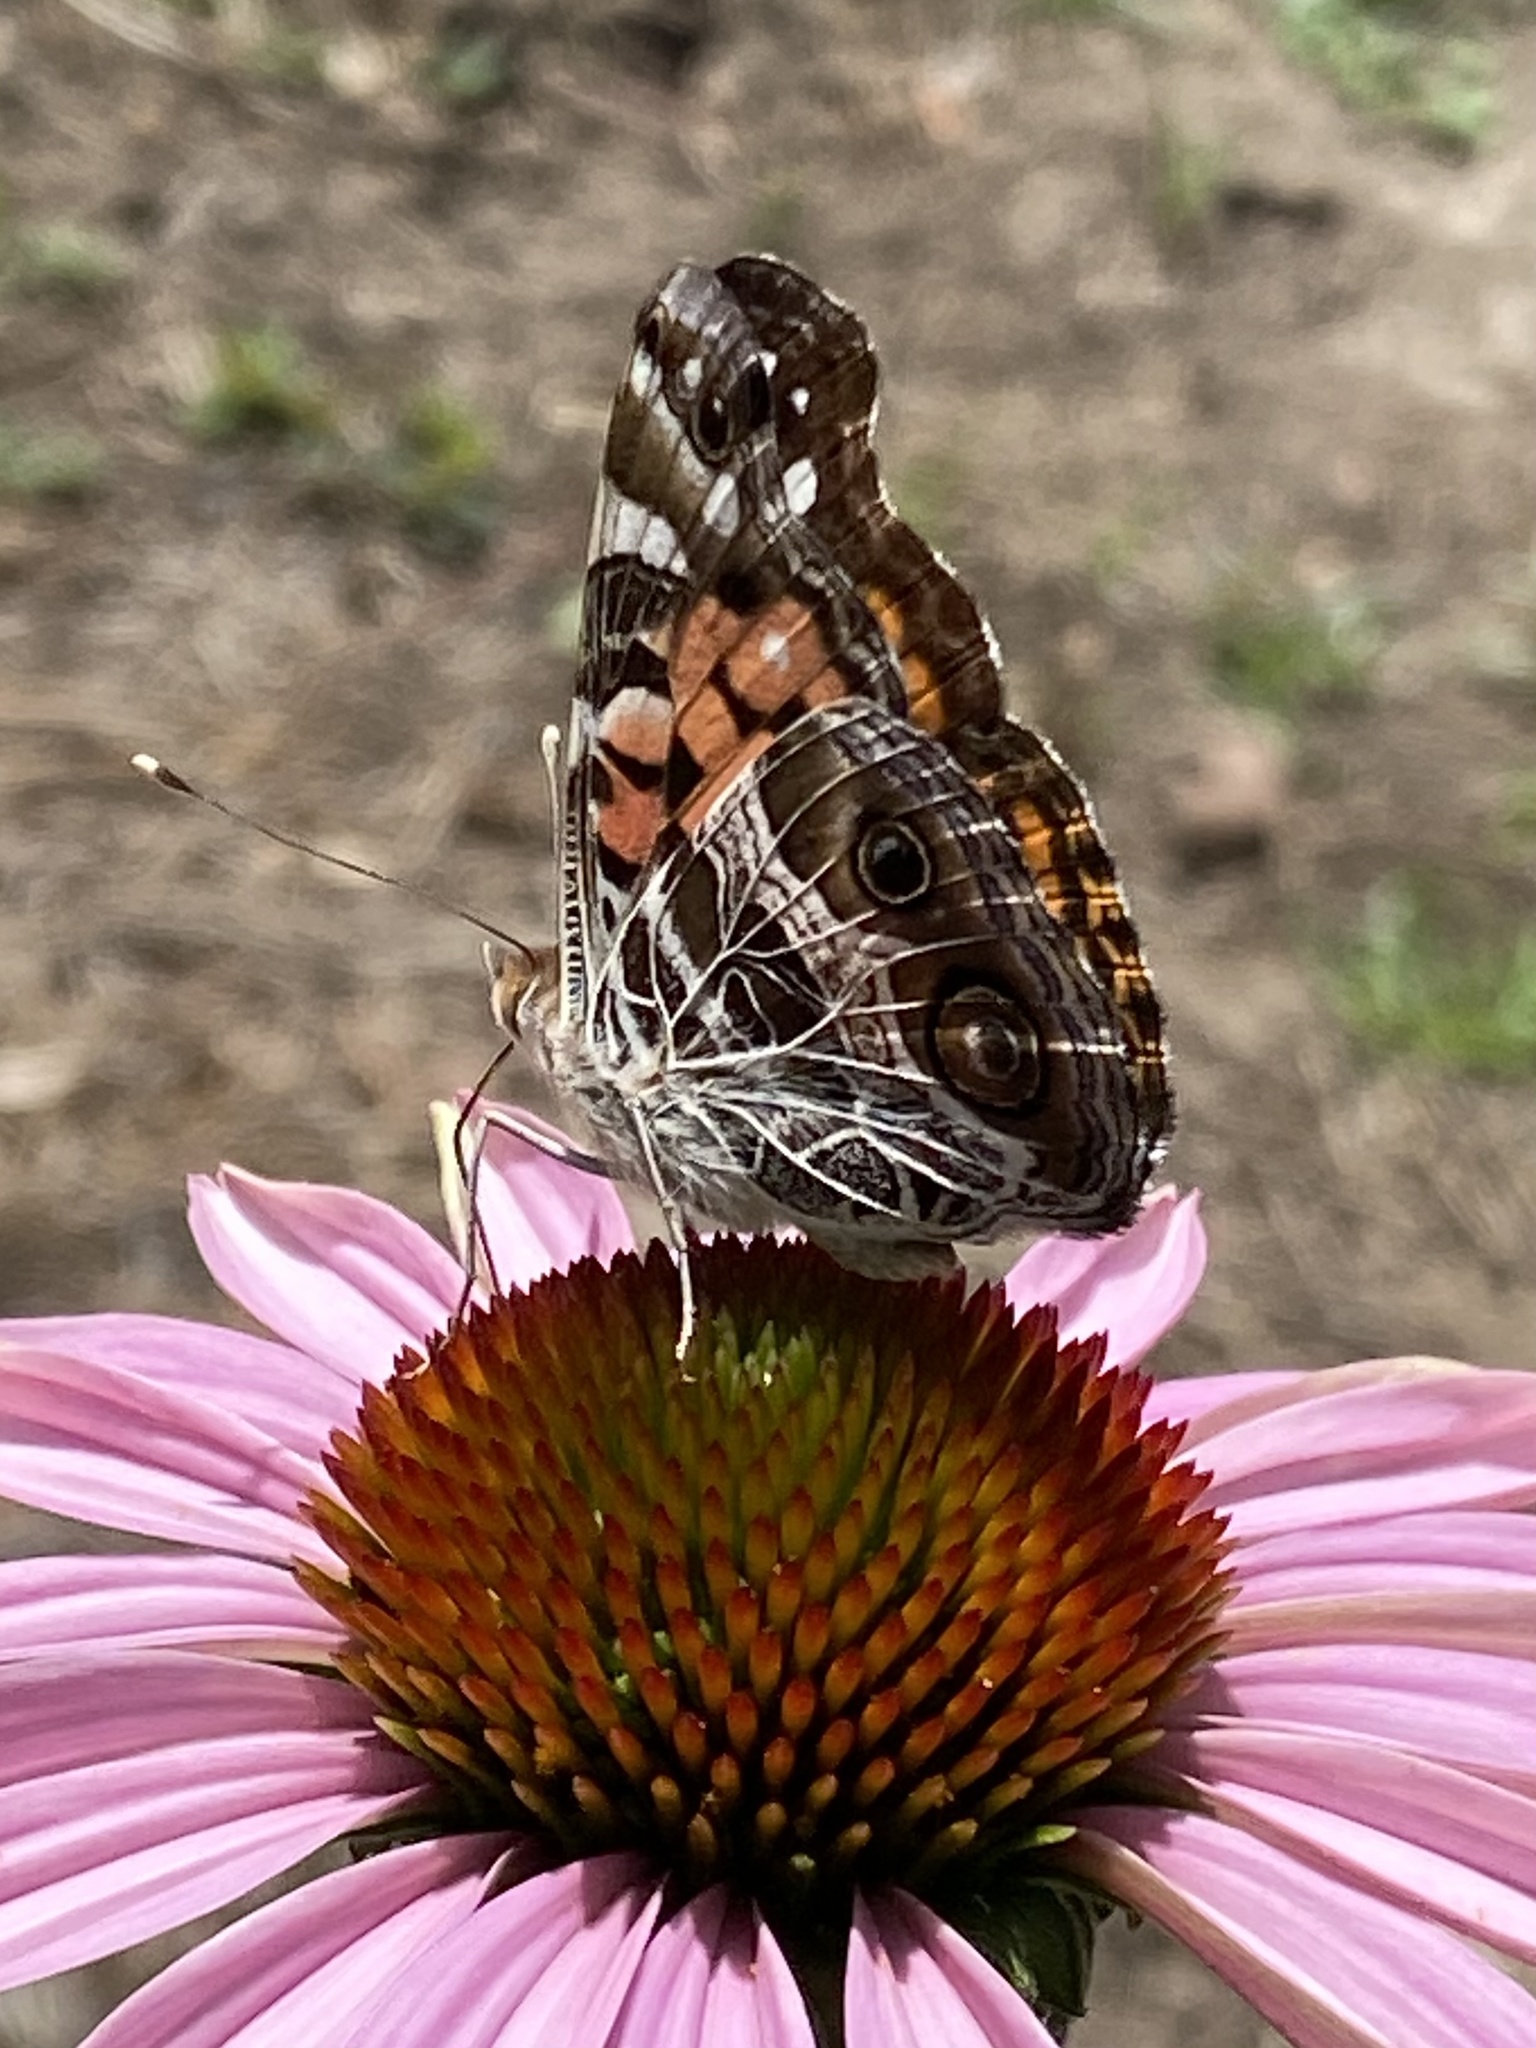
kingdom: Animalia
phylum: Arthropoda
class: Insecta
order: Lepidoptera
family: Nymphalidae
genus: Vanessa
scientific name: Vanessa virginiensis
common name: American lady
